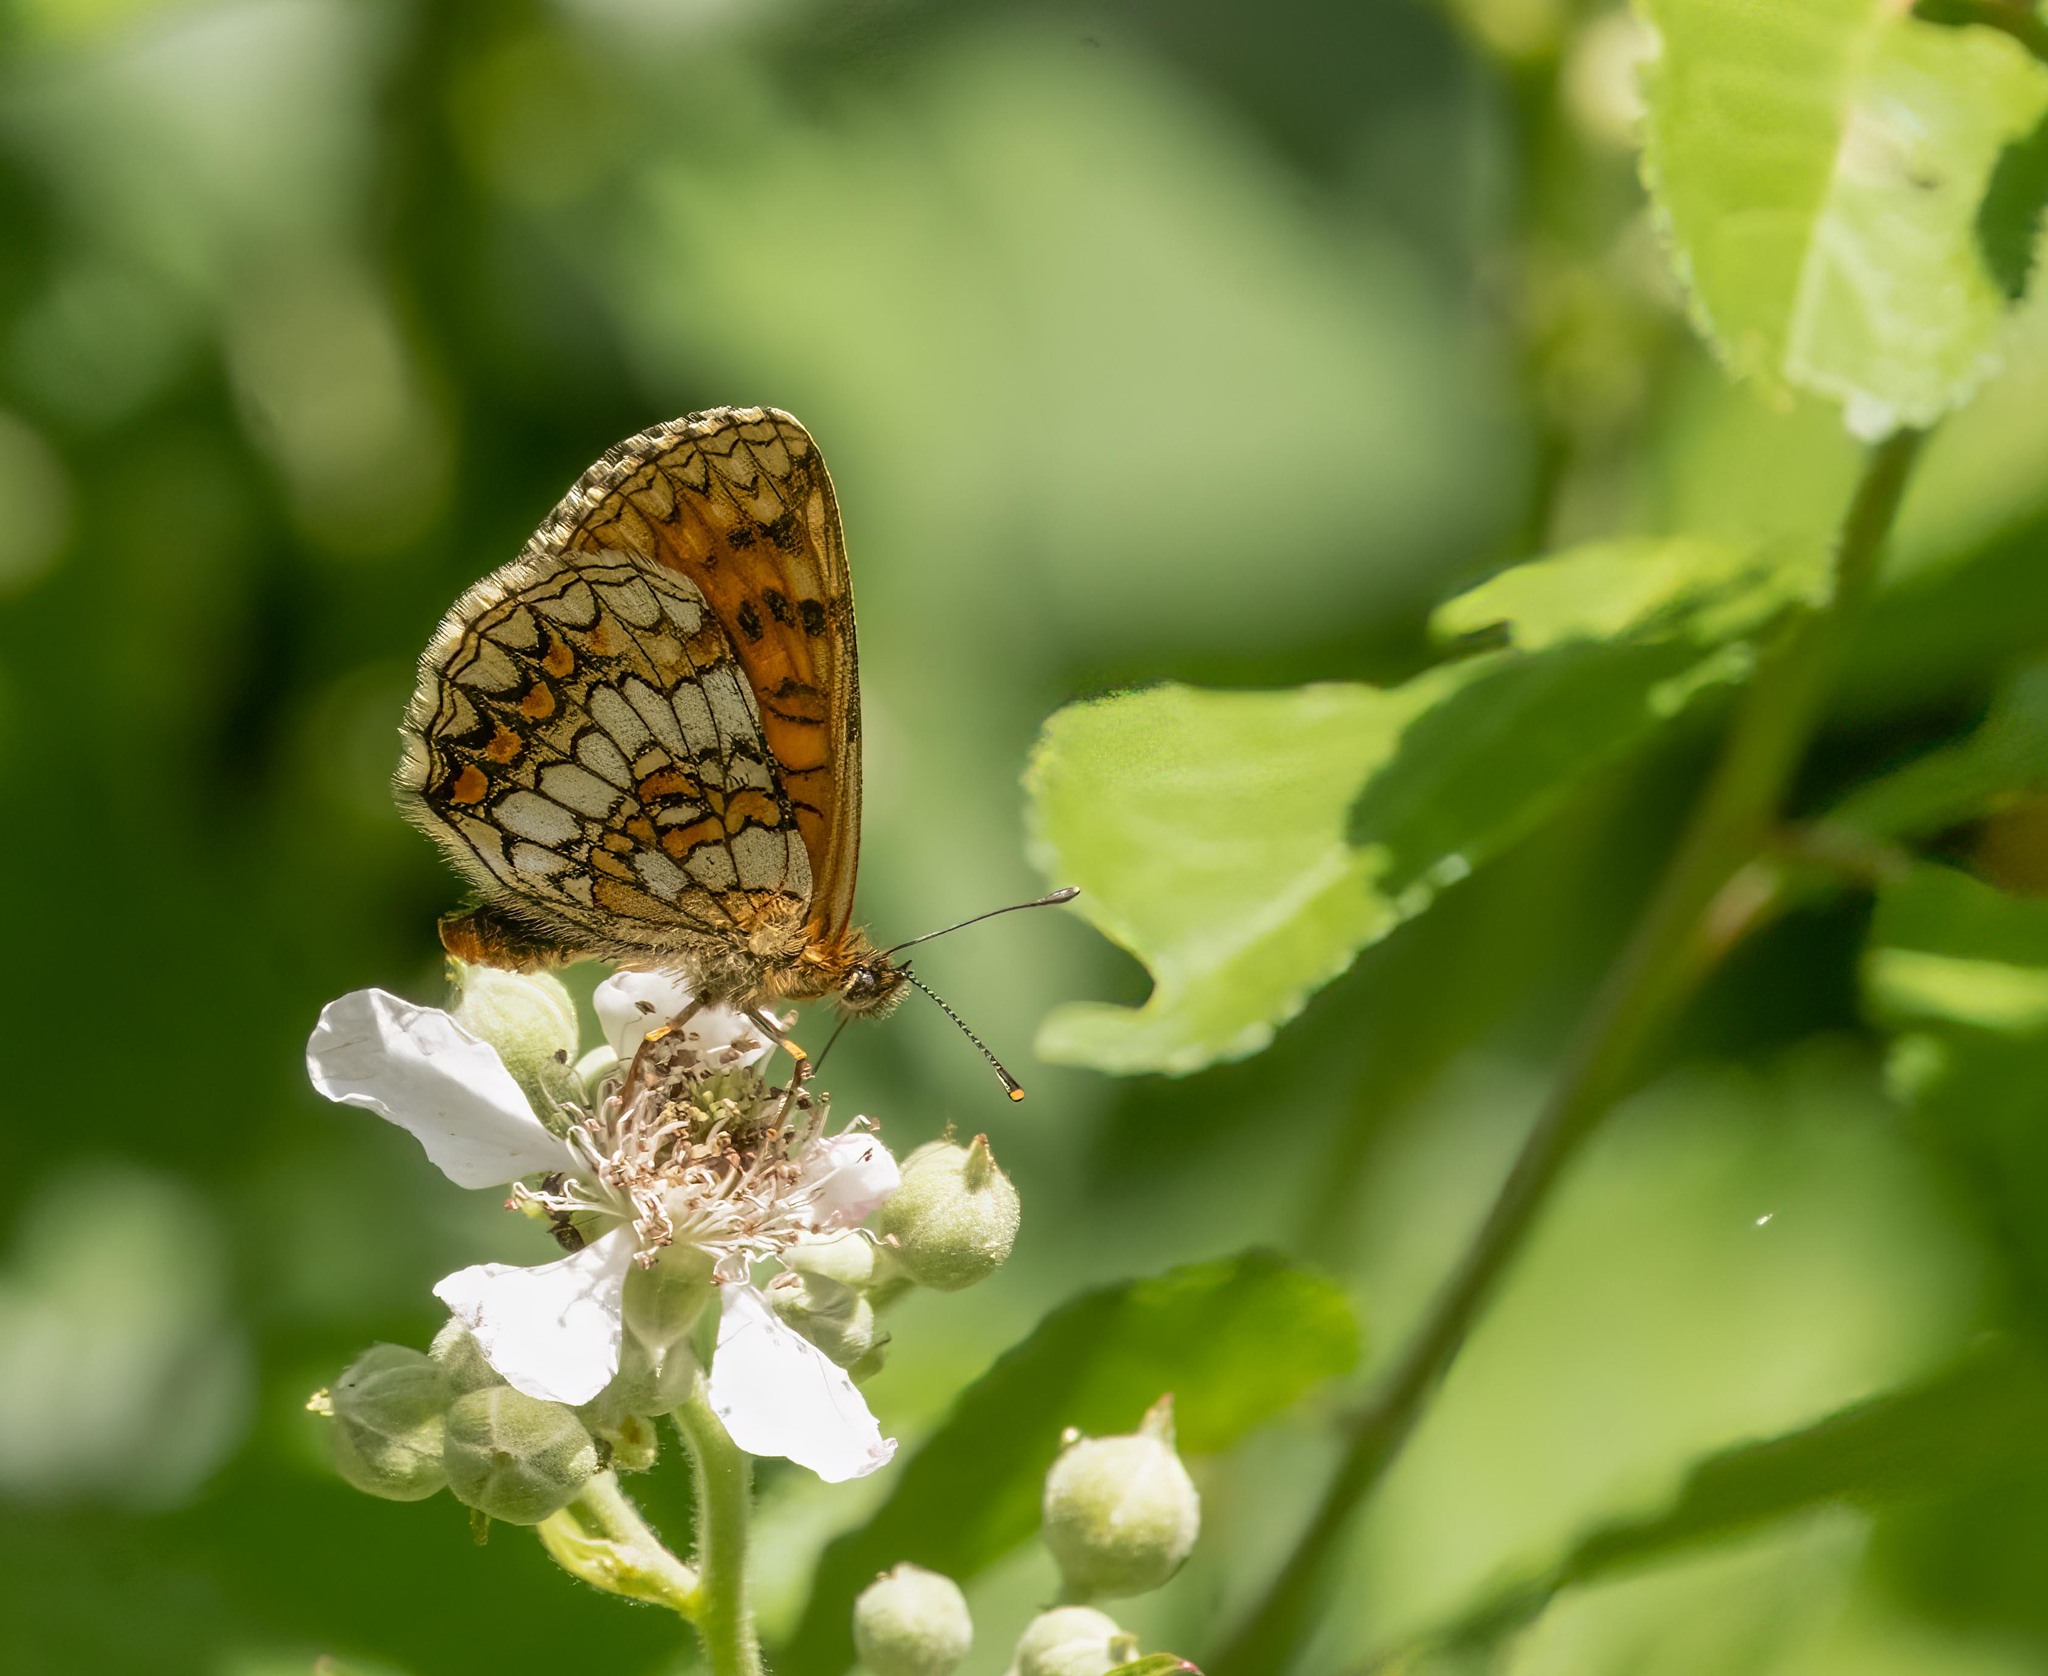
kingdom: Animalia
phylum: Arthropoda
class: Insecta
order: Lepidoptera
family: Nymphalidae
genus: Melitaea
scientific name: Melitaea athalia
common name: Heath fritillary
